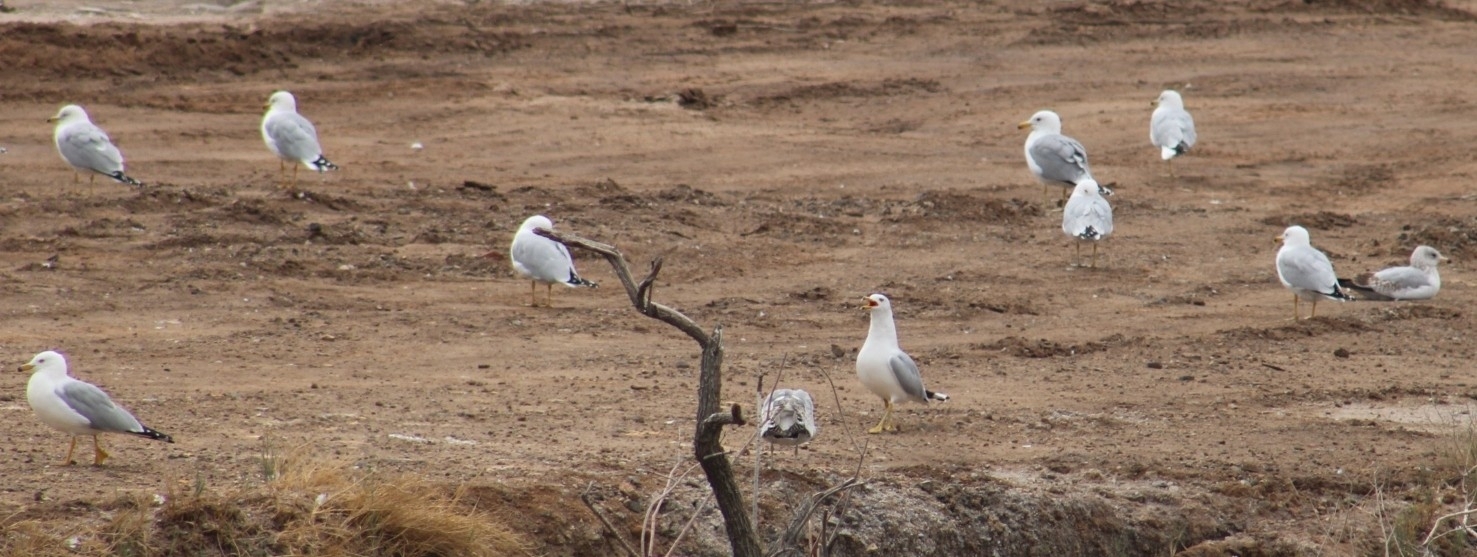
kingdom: Animalia
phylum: Chordata
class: Aves
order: Charadriiformes
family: Laridae
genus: Larus
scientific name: Larus delawarensis
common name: Ring-billed gull
